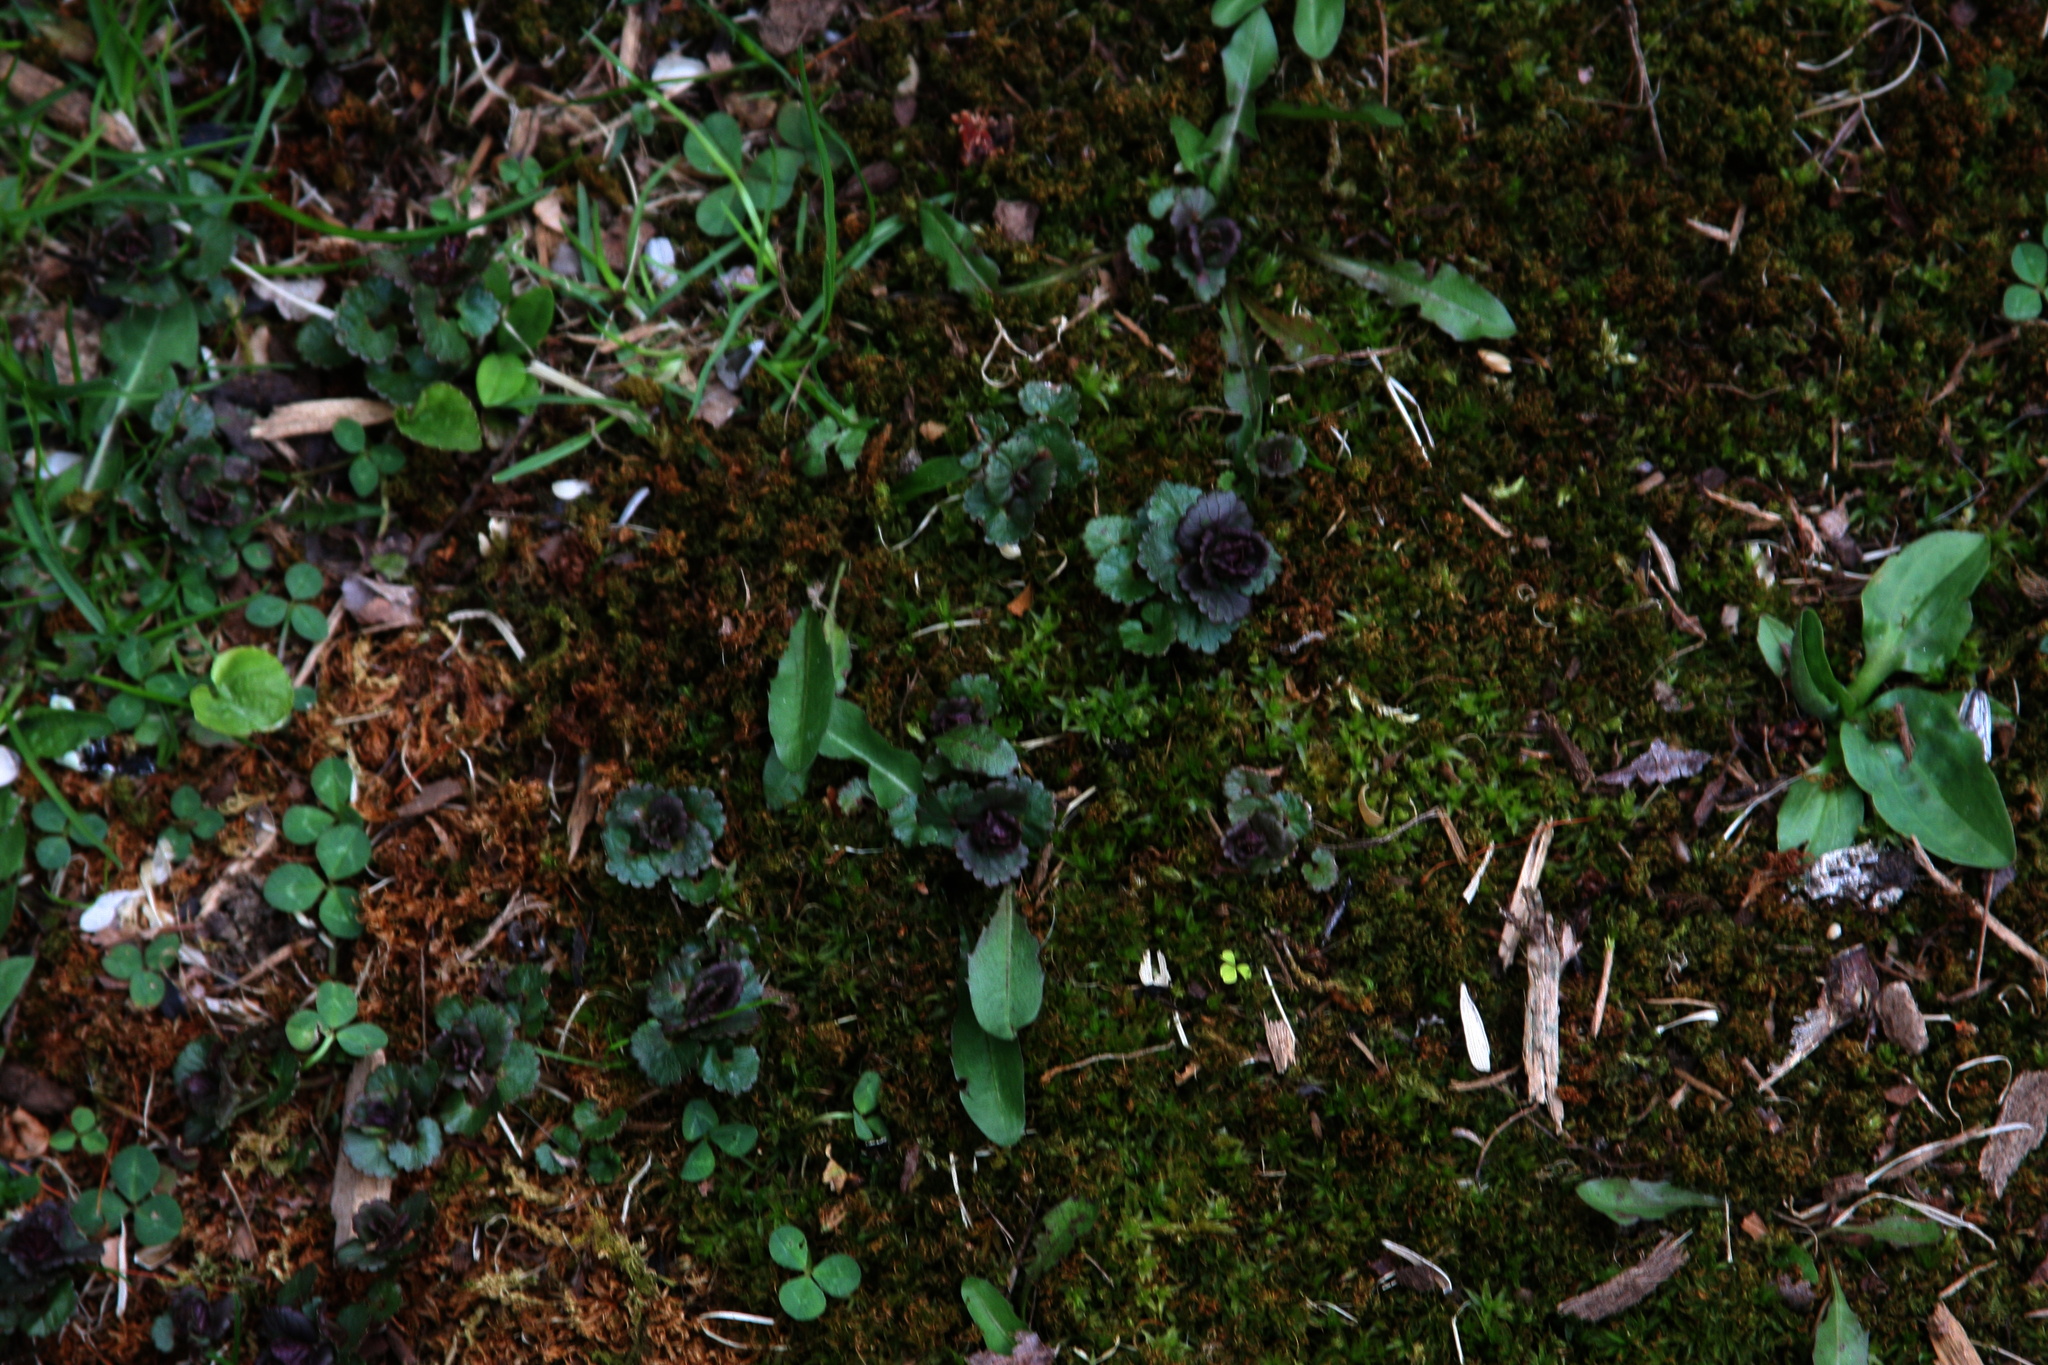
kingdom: Plantae
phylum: Tracheophyta
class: Magnoliopsida
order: Lamiales
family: Lamiaceae
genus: Glechoma
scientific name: Glechoma hederacea
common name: Ground ivy
